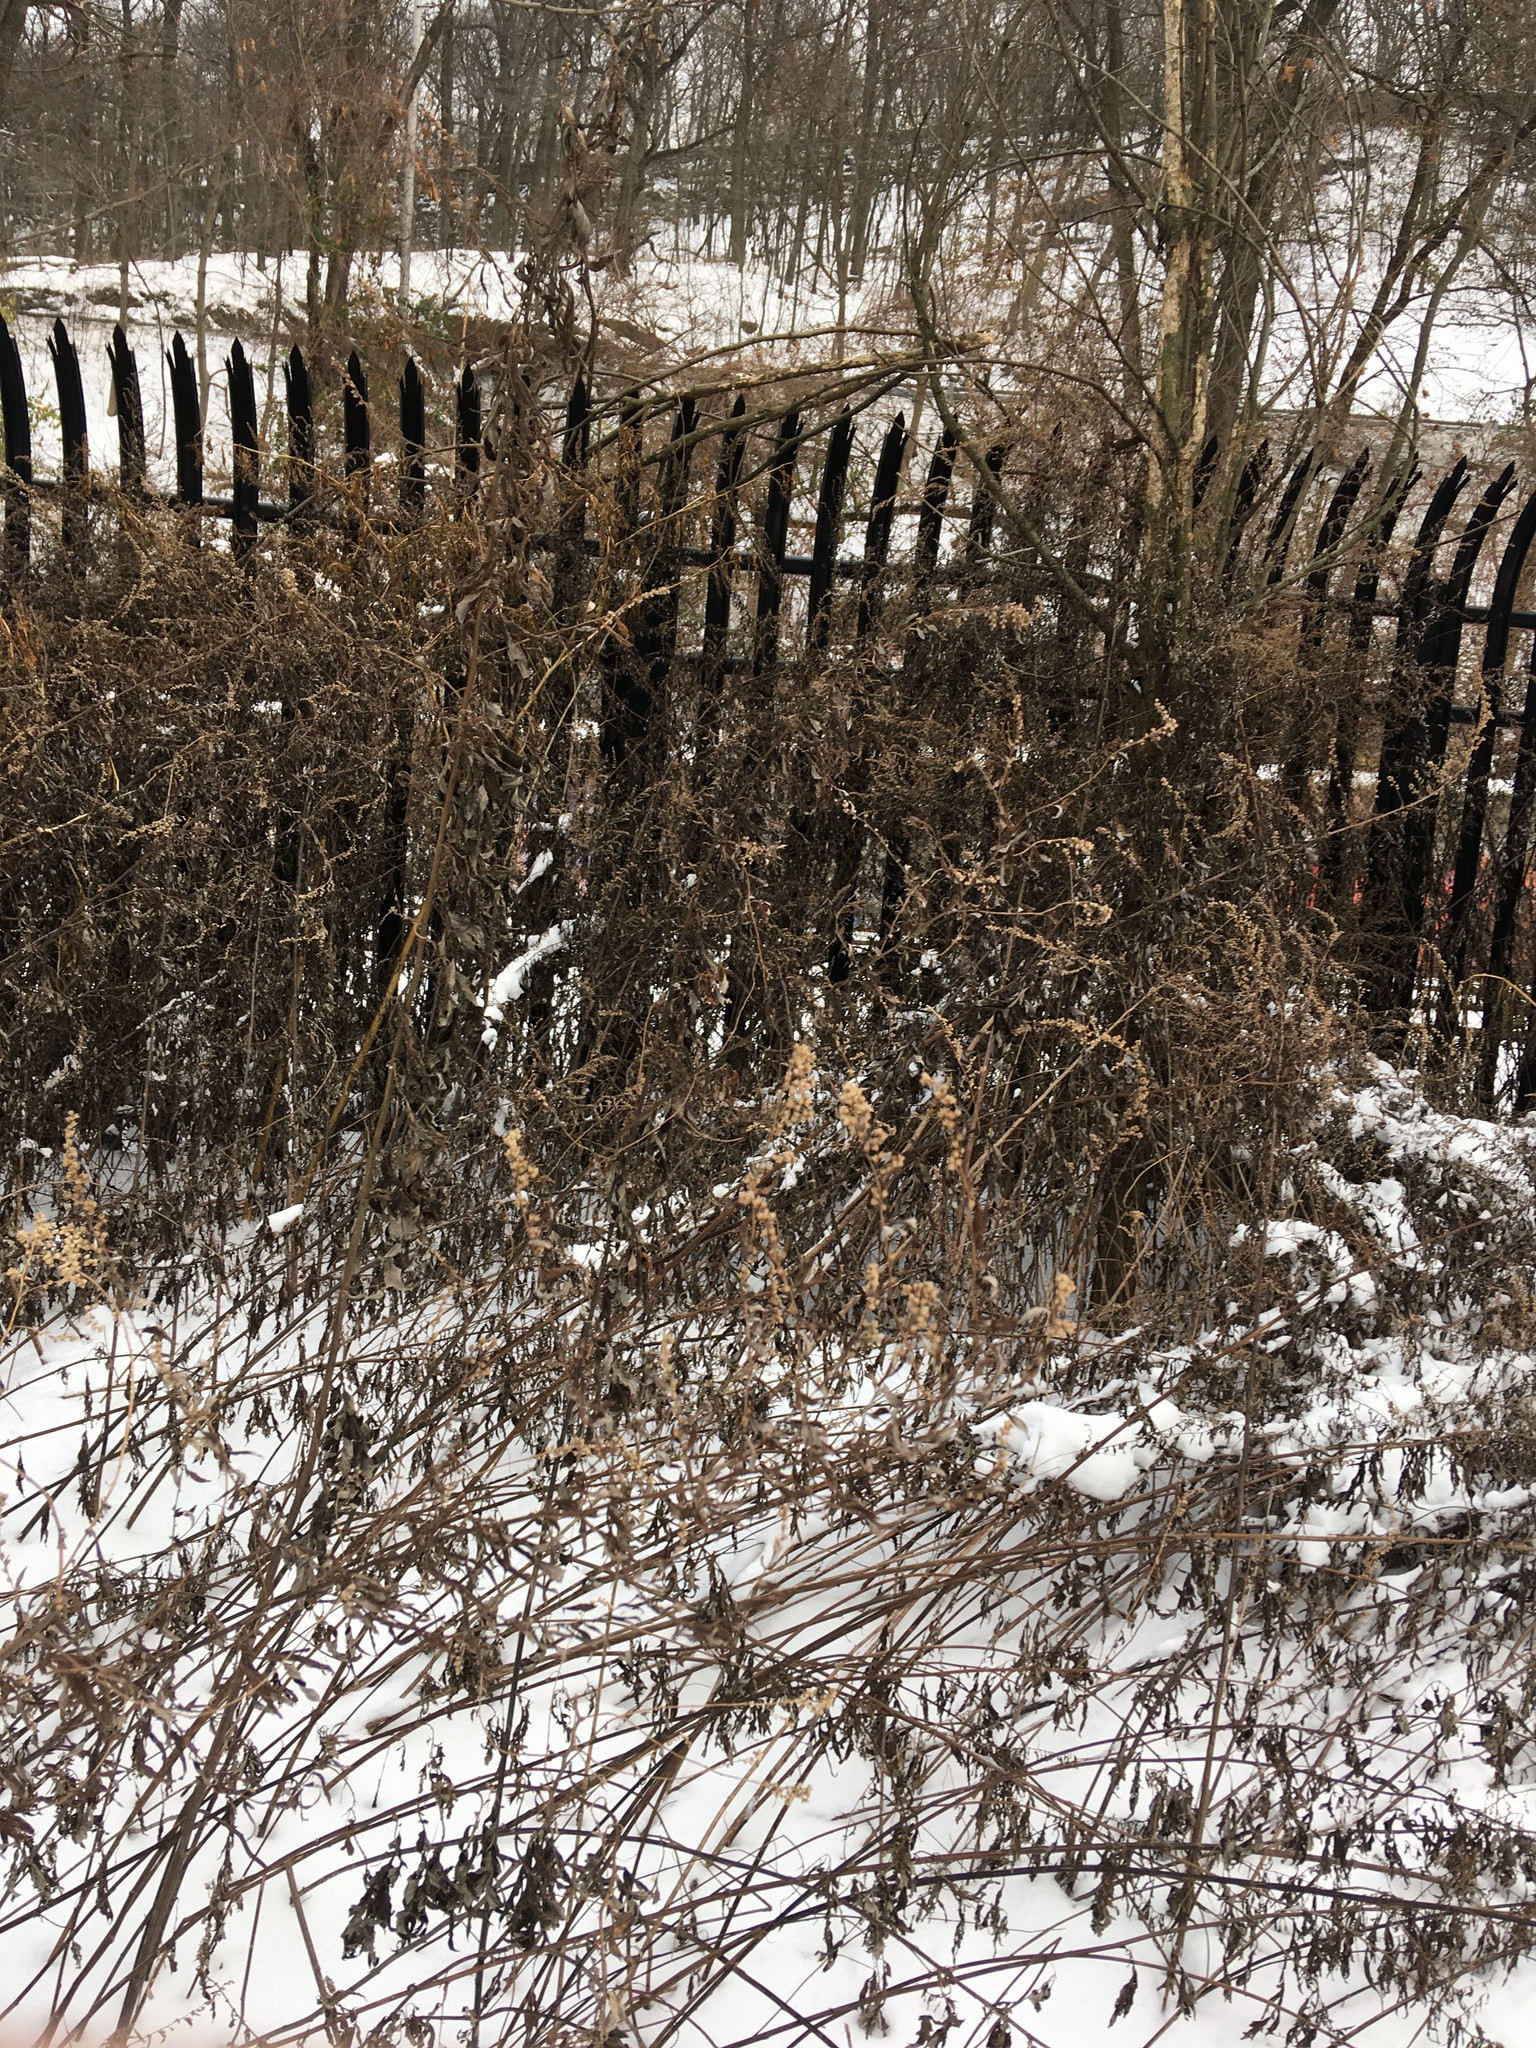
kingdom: Plantae
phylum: Tracheophyta
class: Magnoliopsida
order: Asterales
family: Asteraceae
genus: Artemisia
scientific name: Artemisia vulgaris
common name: Mugwort
